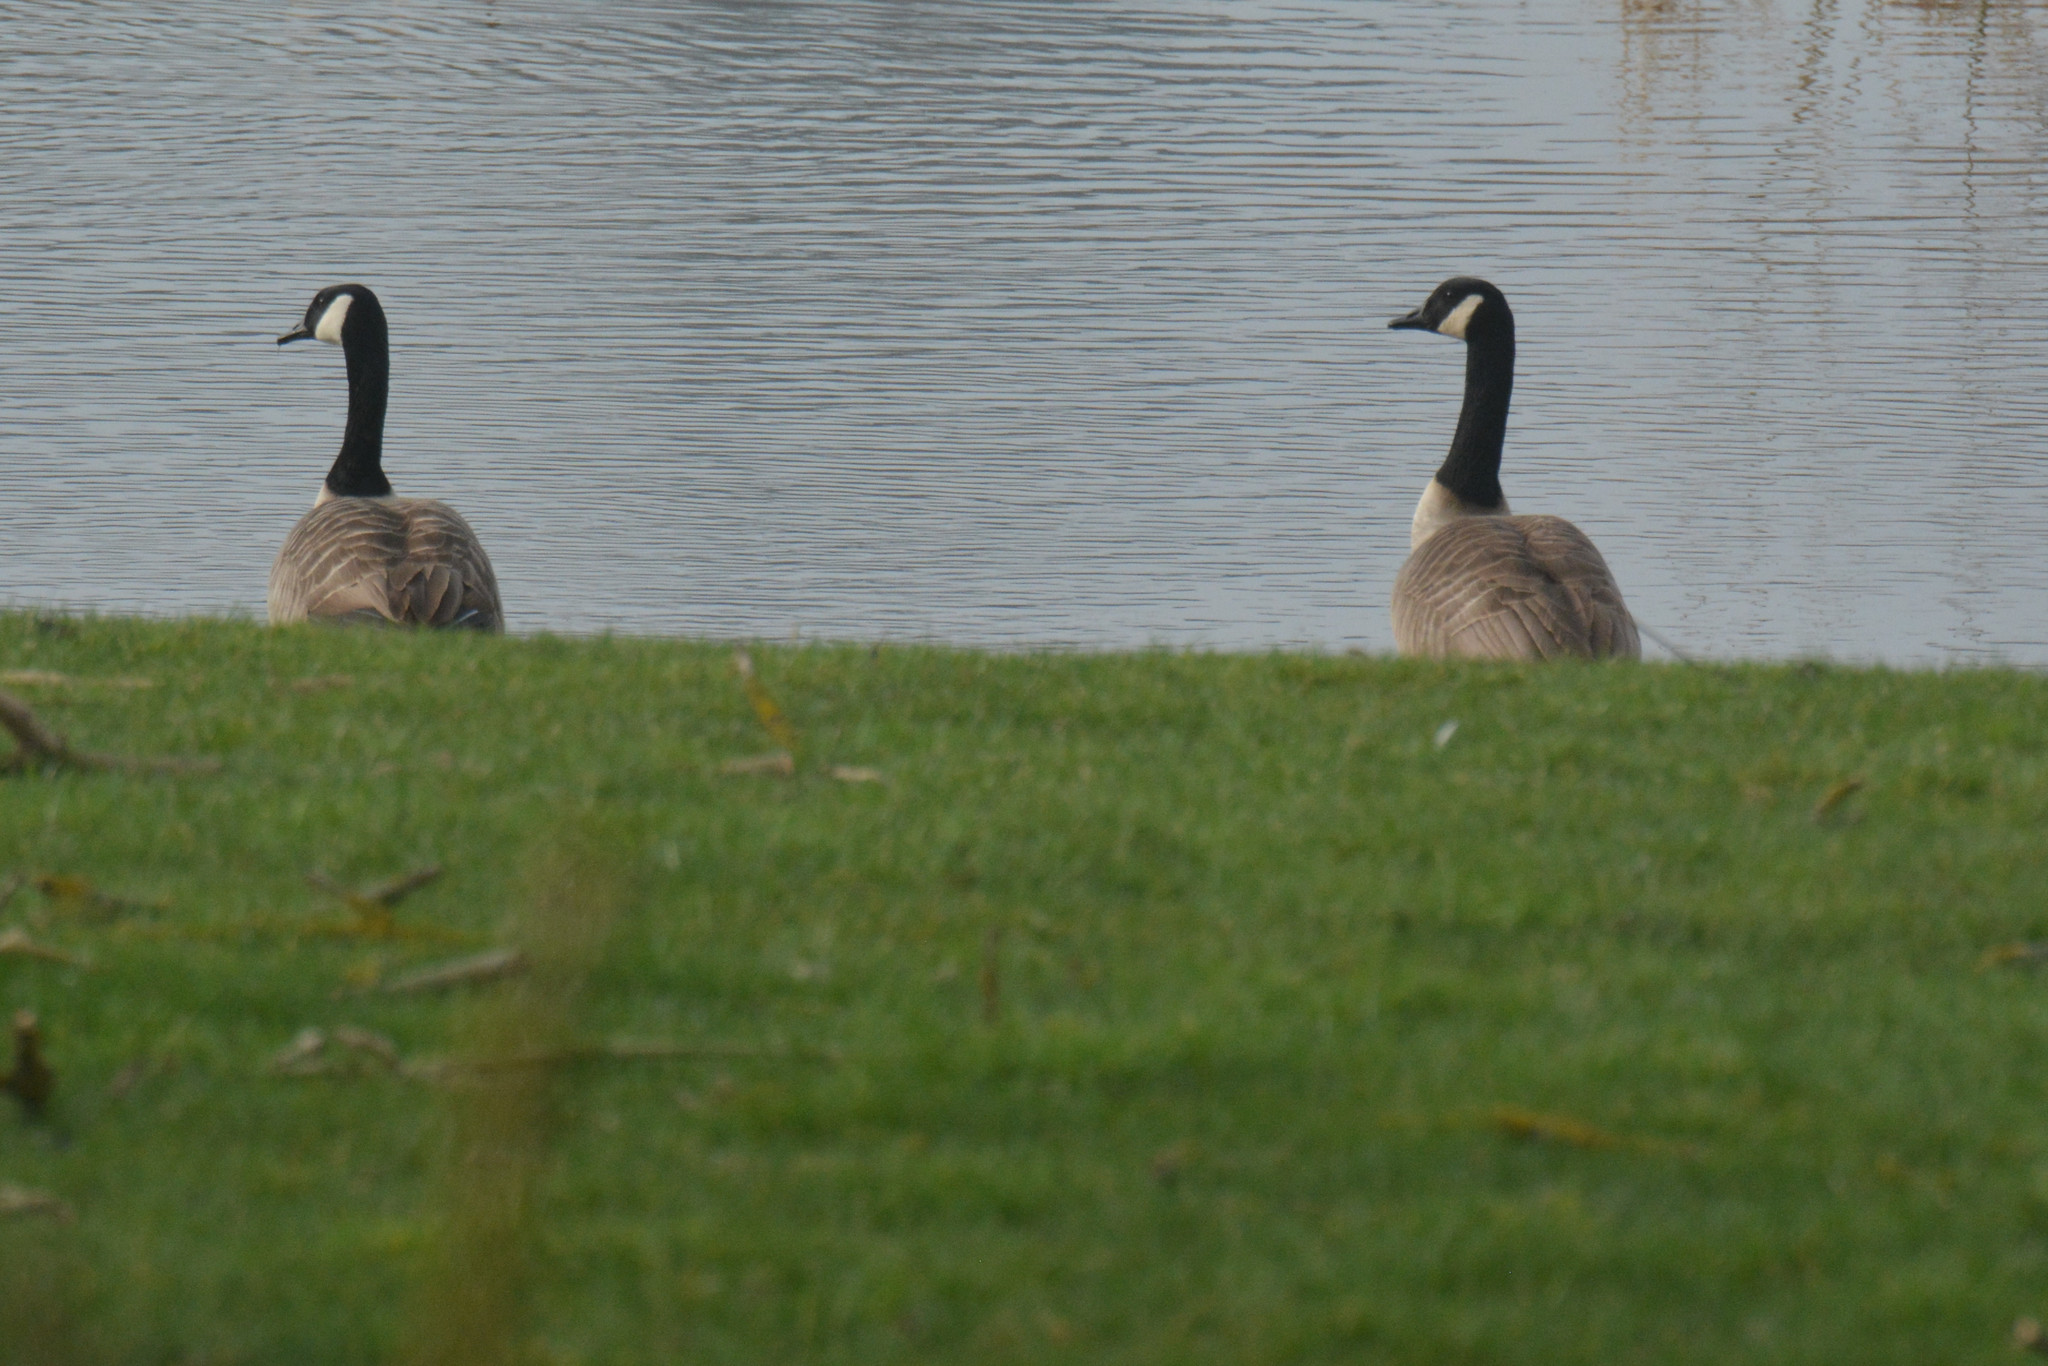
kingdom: Animalia
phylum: Chordata
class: Aves
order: Anseriformes
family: Anatidae
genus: Branta
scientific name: Branta canadensis
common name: Canada goose
